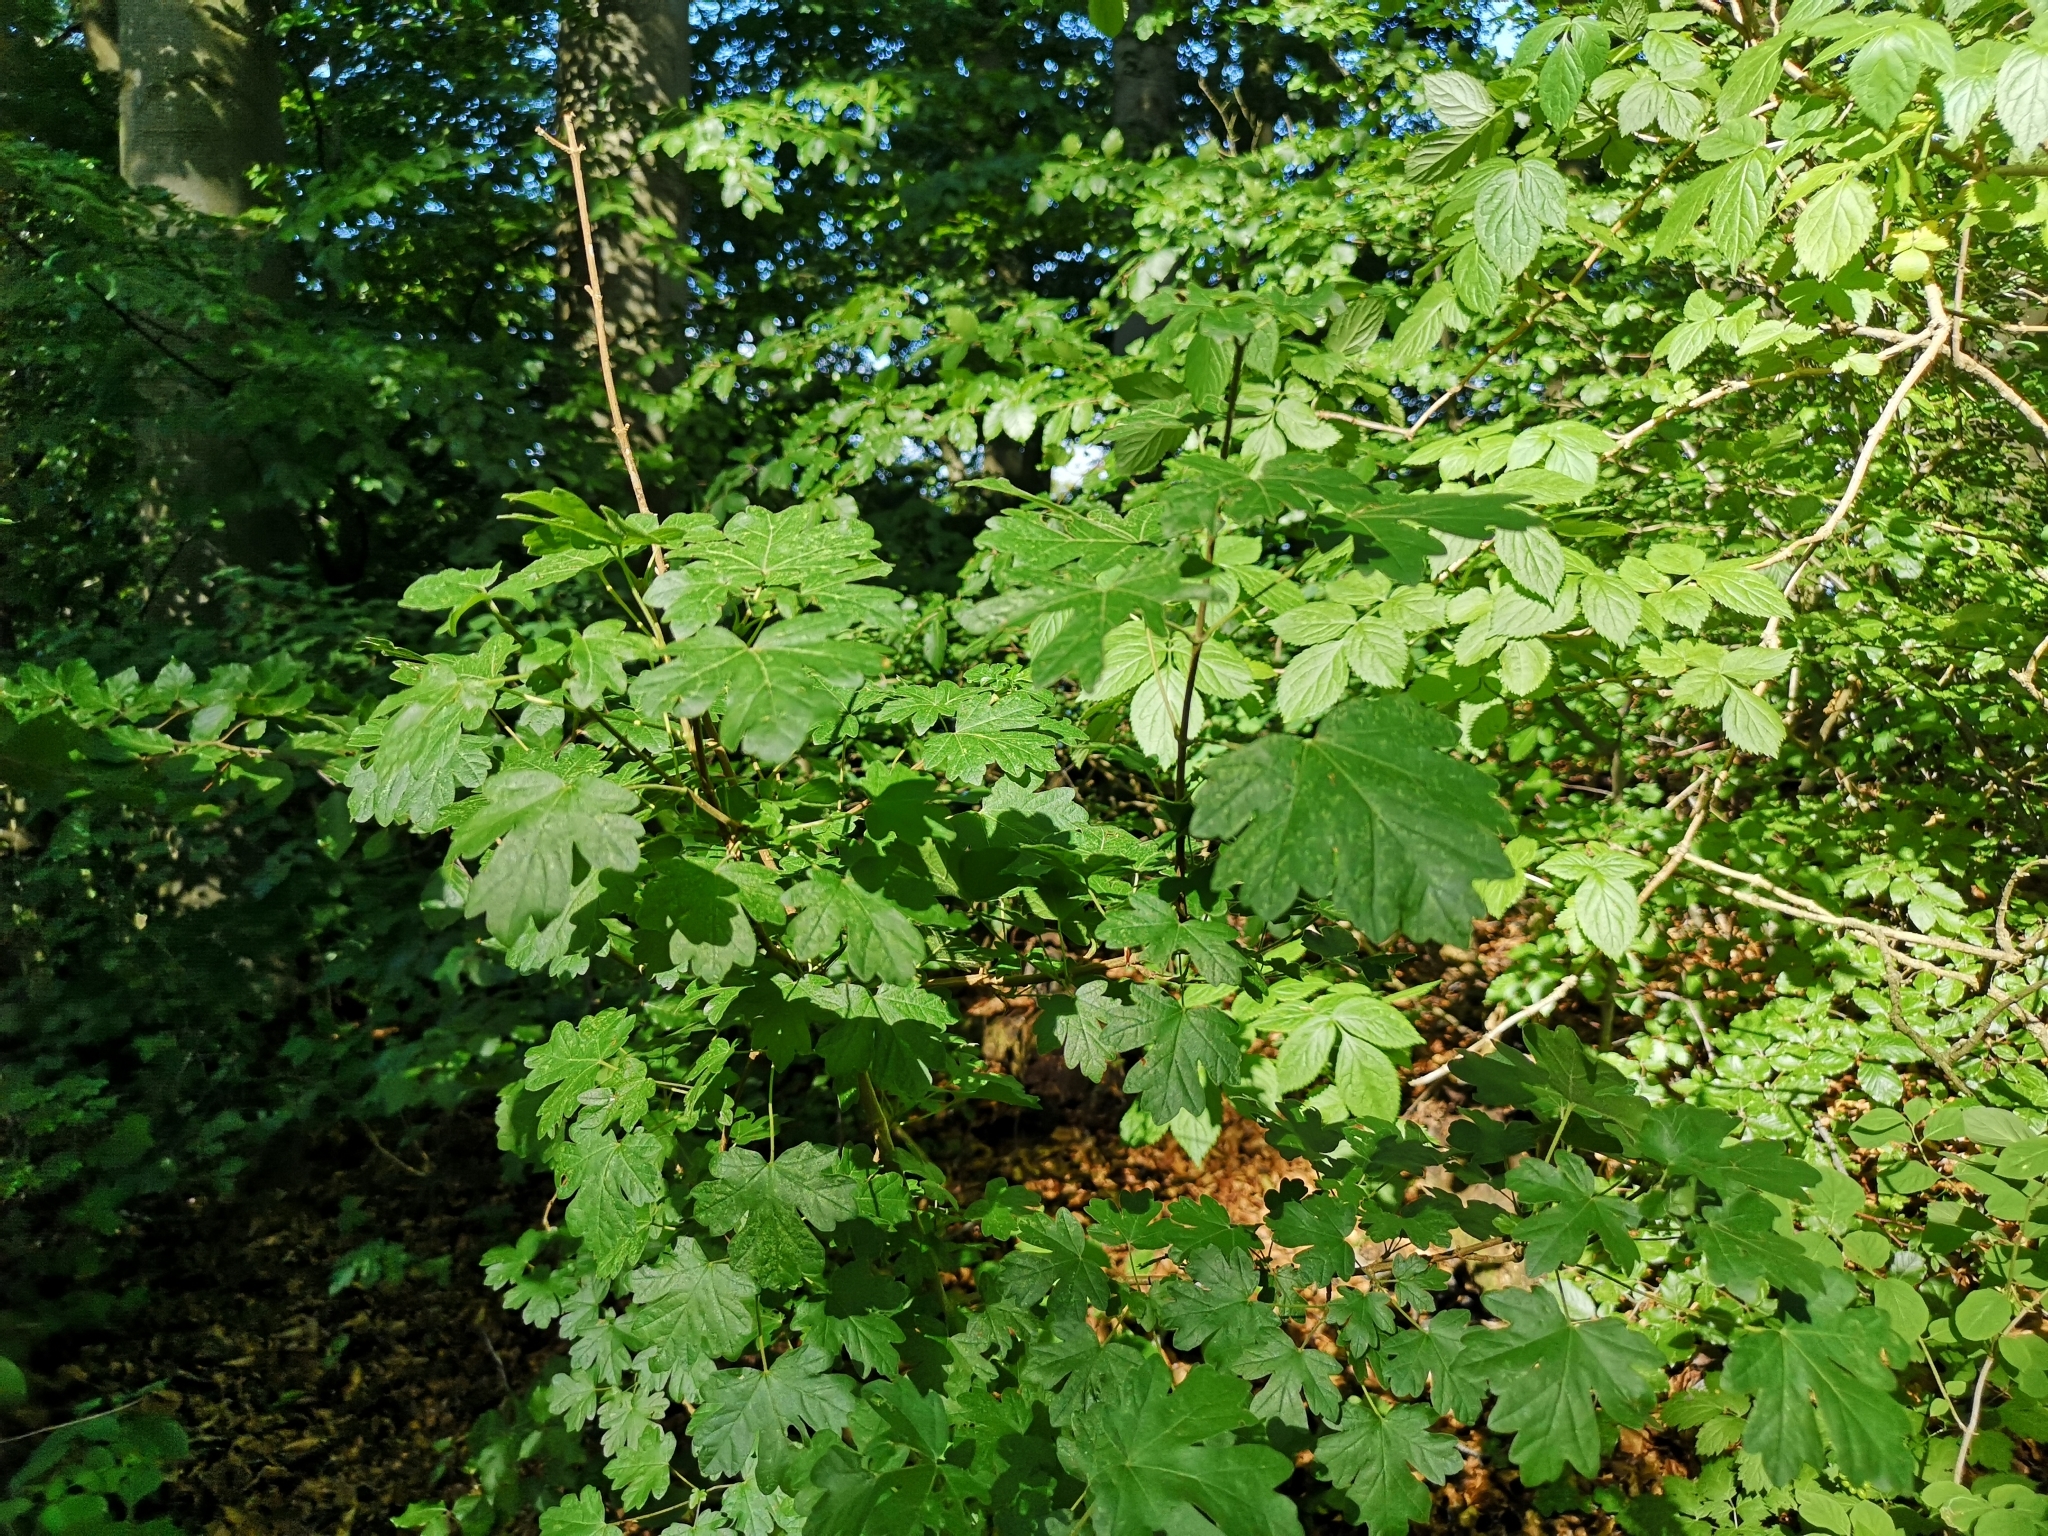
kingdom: Plantae
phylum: Tracheophyta
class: Magnoliopsida
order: Sapindales
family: Sapindaceae
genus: Acer
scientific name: Acer campestre
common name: Field maple
